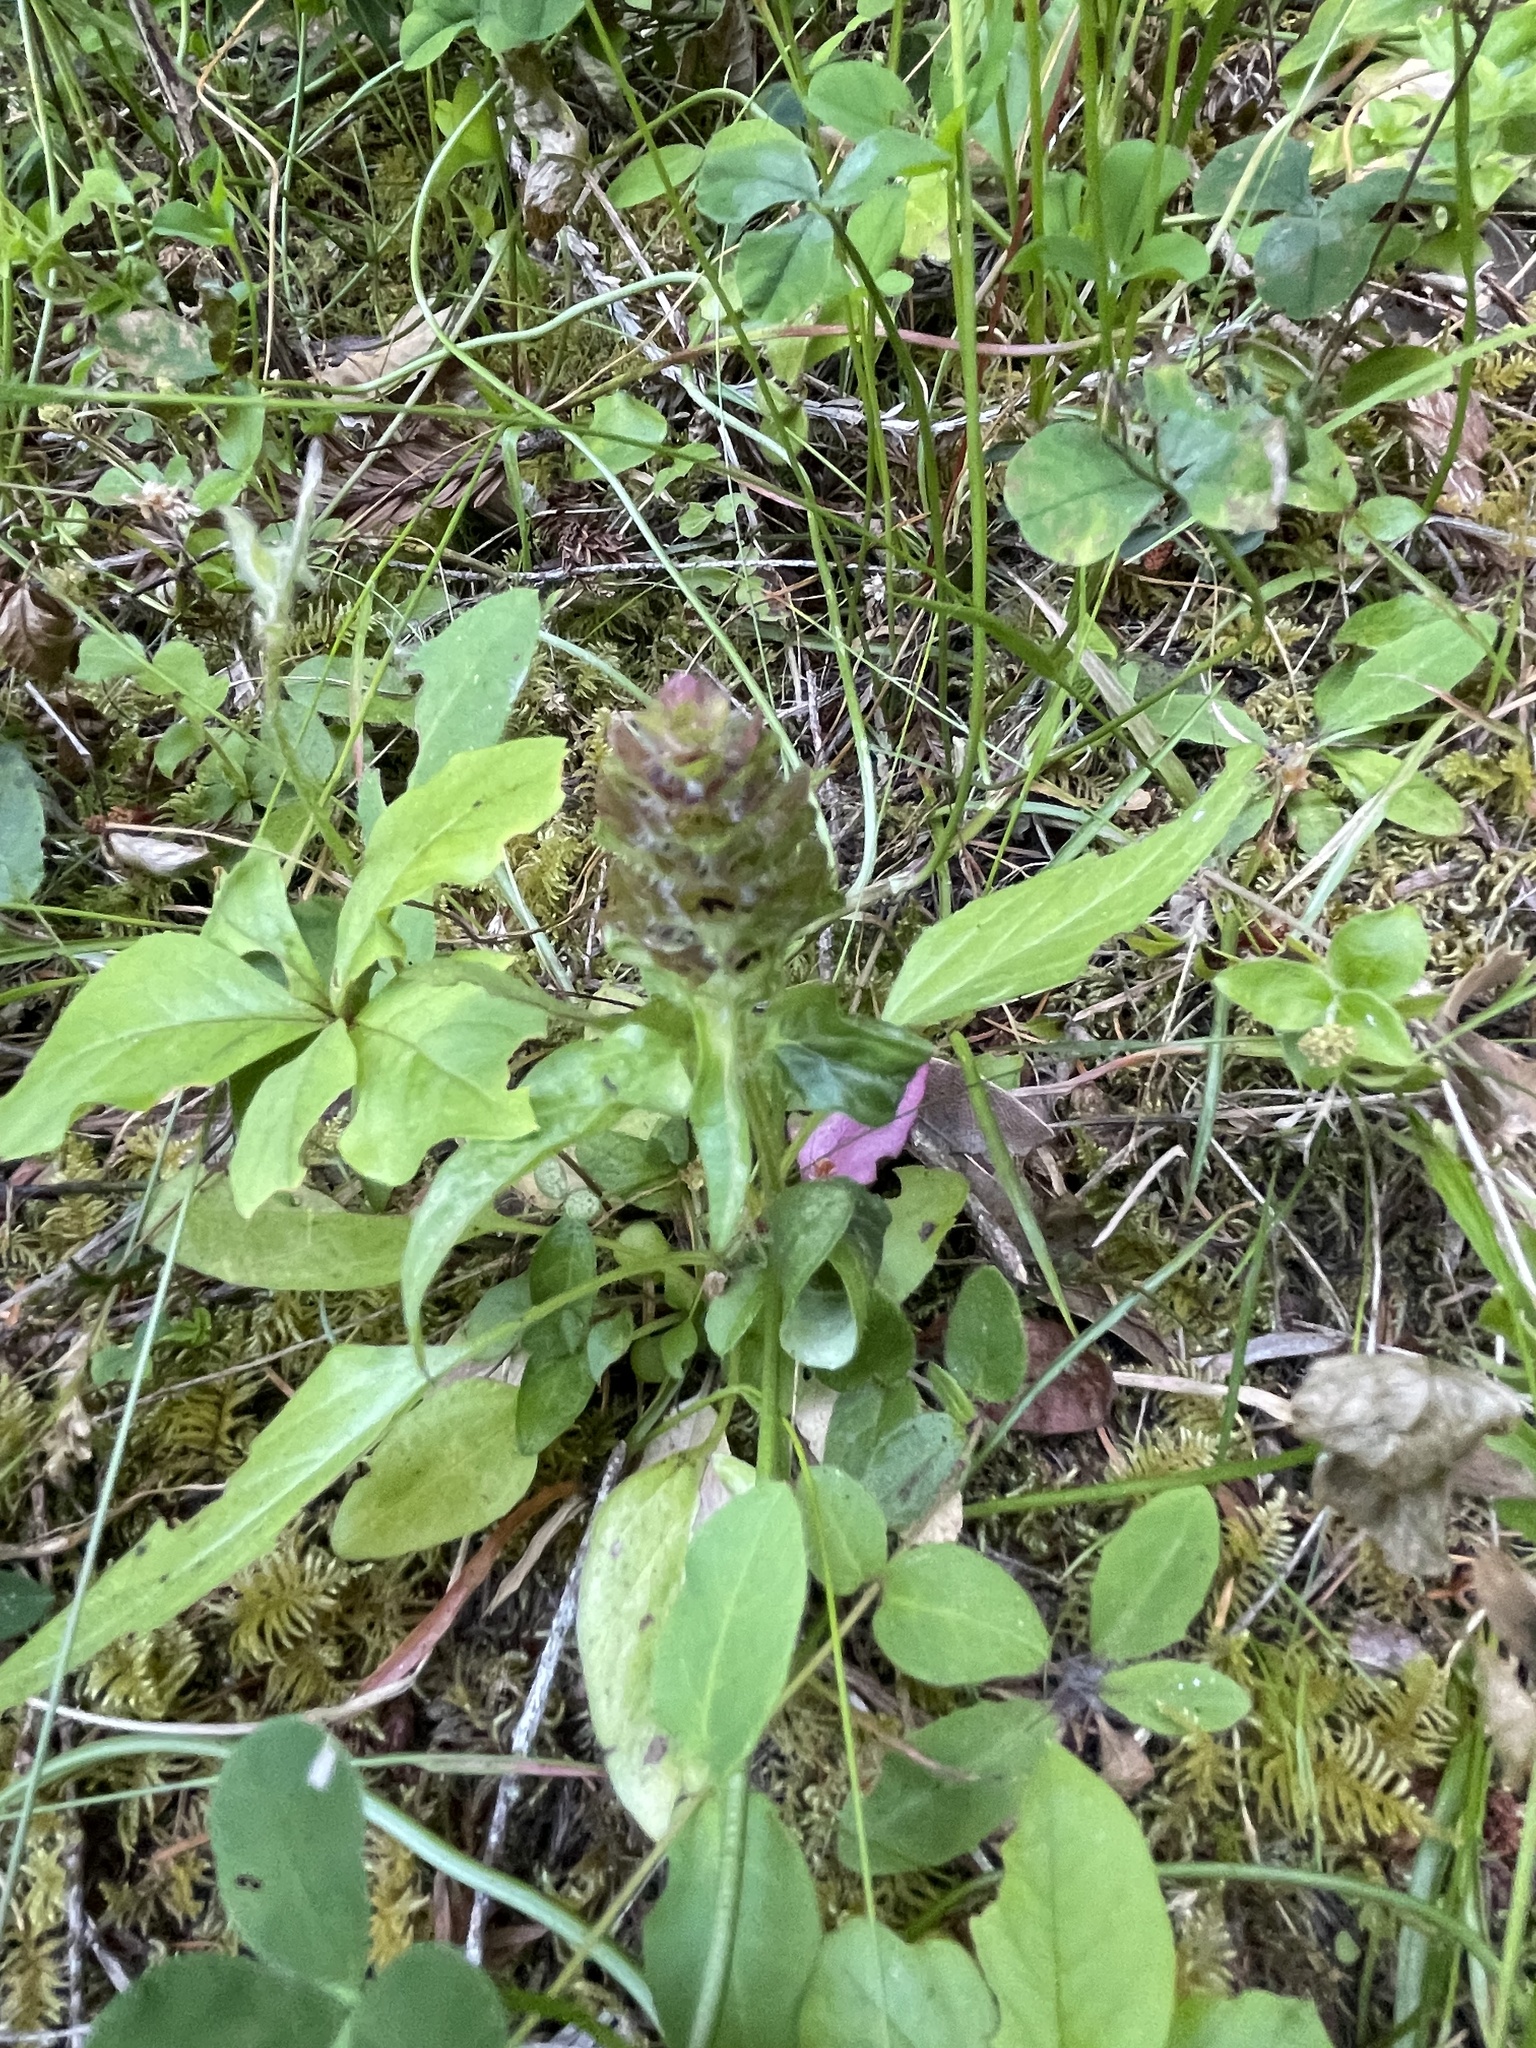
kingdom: Plantae
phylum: Tracheophyta
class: Magnoliopsida
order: Lamiales
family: Lamiaceae
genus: Prunella
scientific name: Prunella vulgaris
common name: Heal-all
